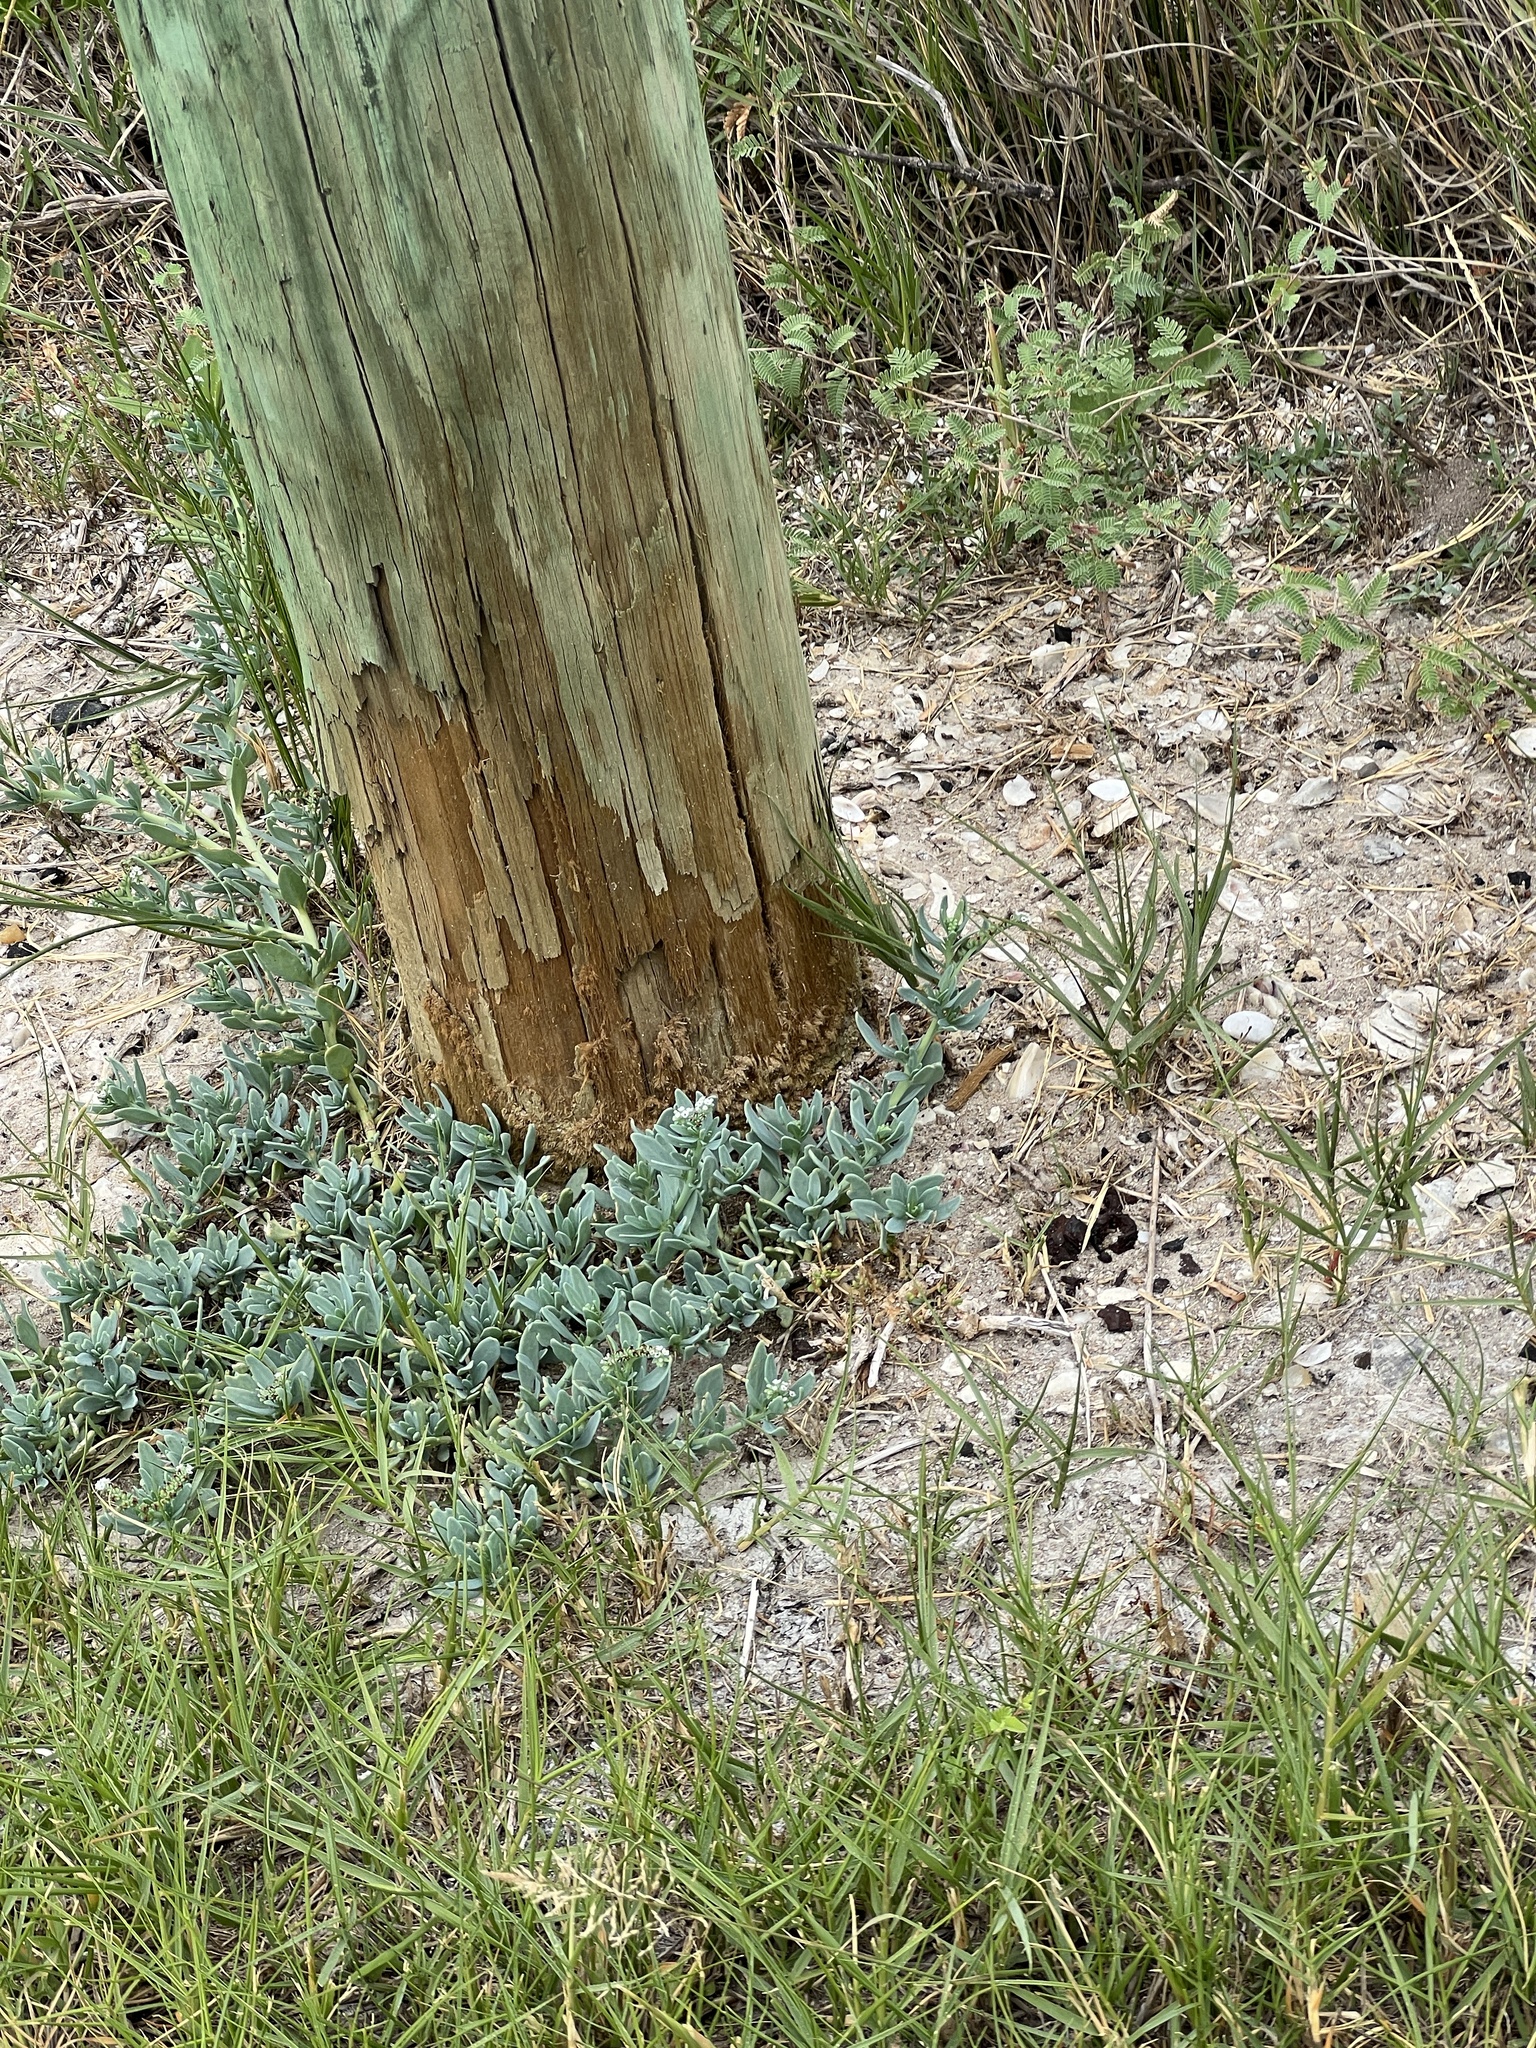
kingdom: Plantae
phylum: Tracheophyta
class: Magnoliopsida
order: Boraginales
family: Heliotropiaceae
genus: Heliotropium
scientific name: Heliotropium curassavicum
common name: Seaside heliotrope
